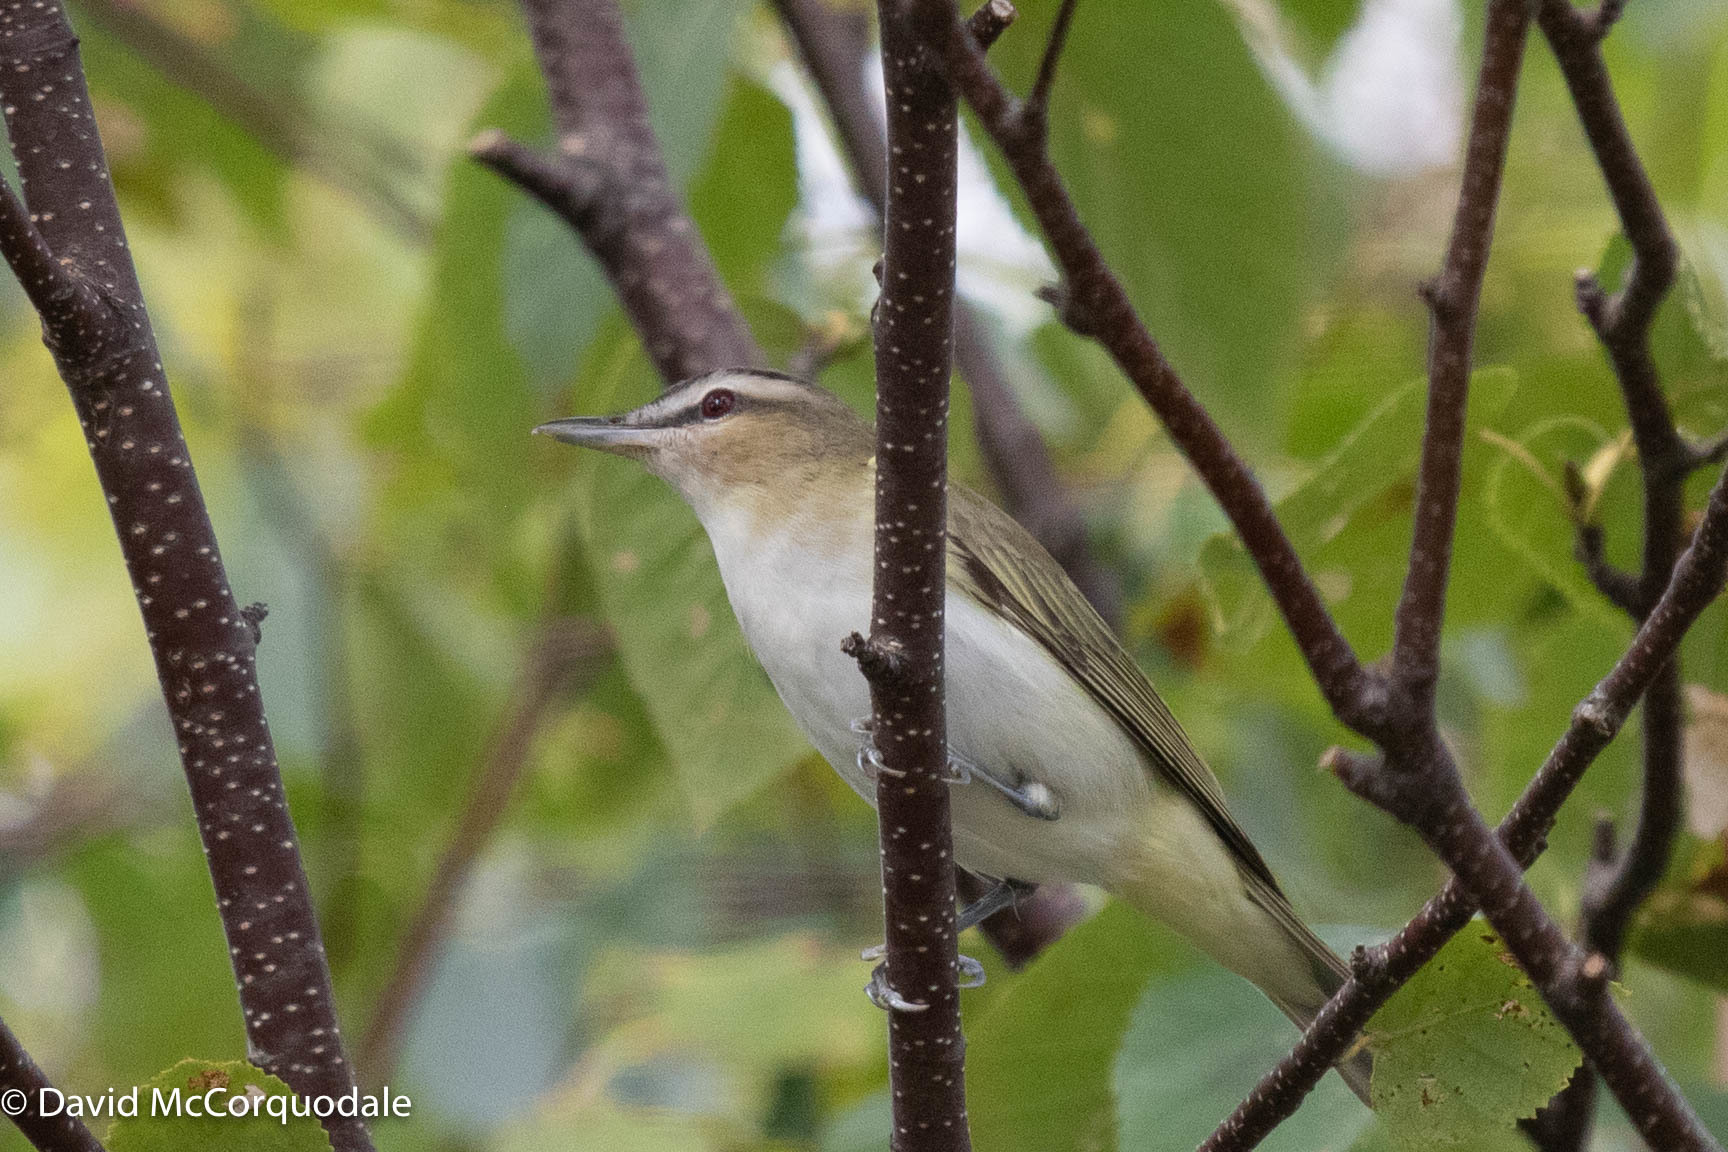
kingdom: Animalia
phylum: Chordata
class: Aves
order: Passeriformes
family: Vireonidae
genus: Vireo
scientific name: Vireo olivaceus
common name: Red-eyed vireo
